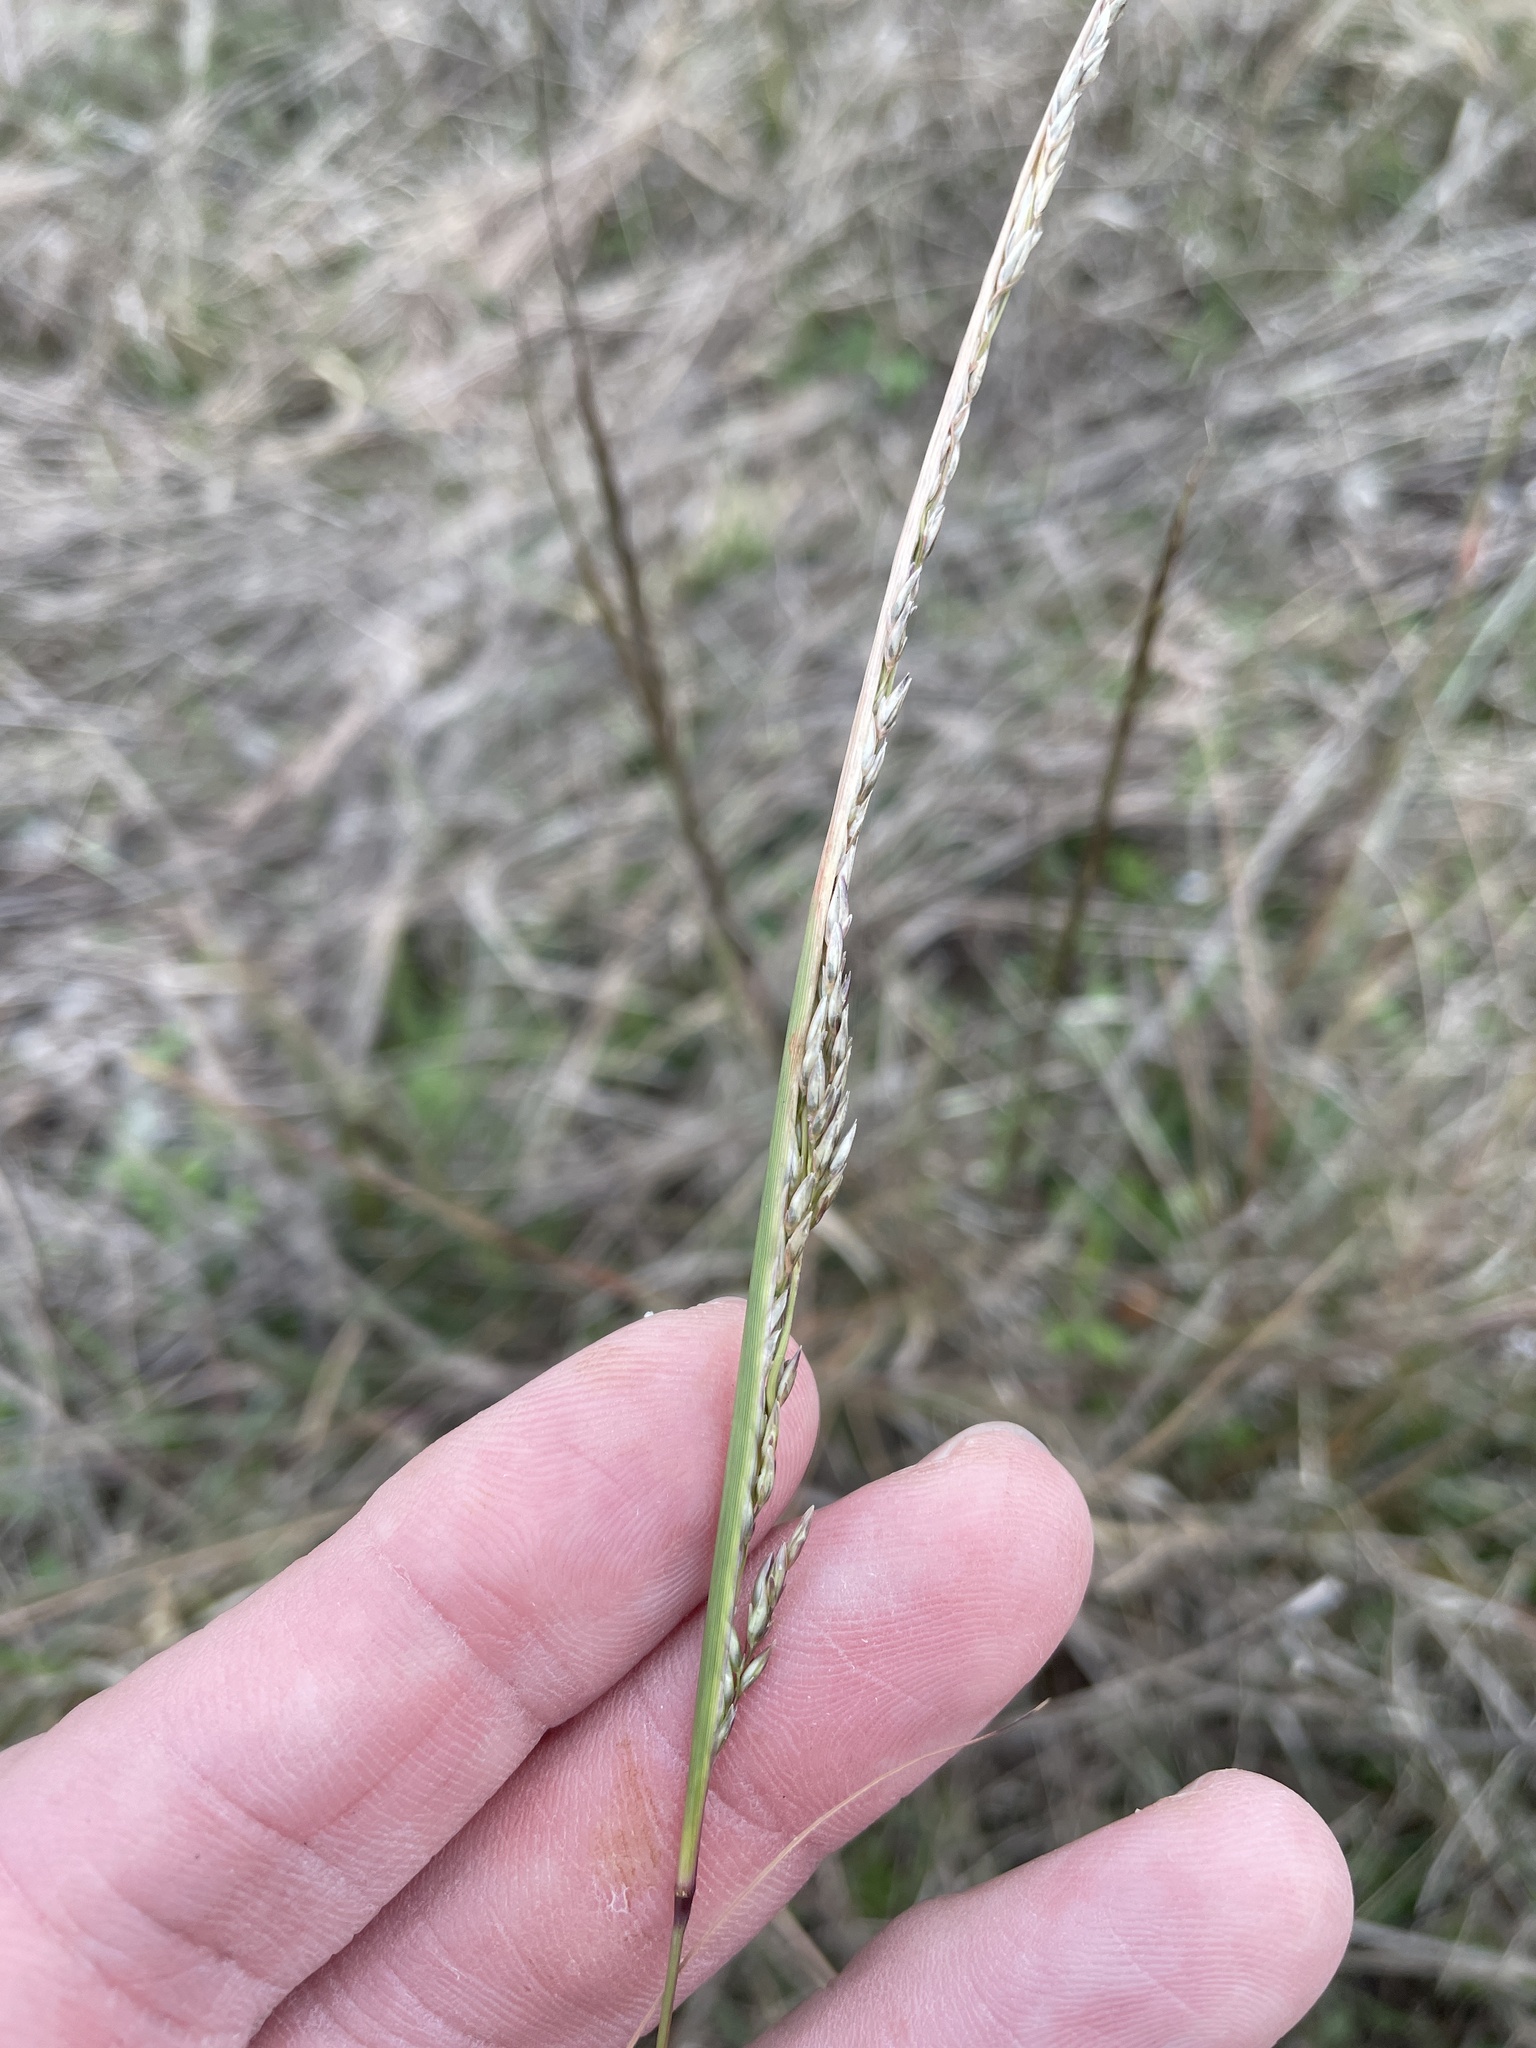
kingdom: Plantae
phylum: Tracheophyta
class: Liliopsida
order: Poales
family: Poaceae
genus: Sporobolus
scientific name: Sporobolus cryptandrus
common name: Sand dropseed
